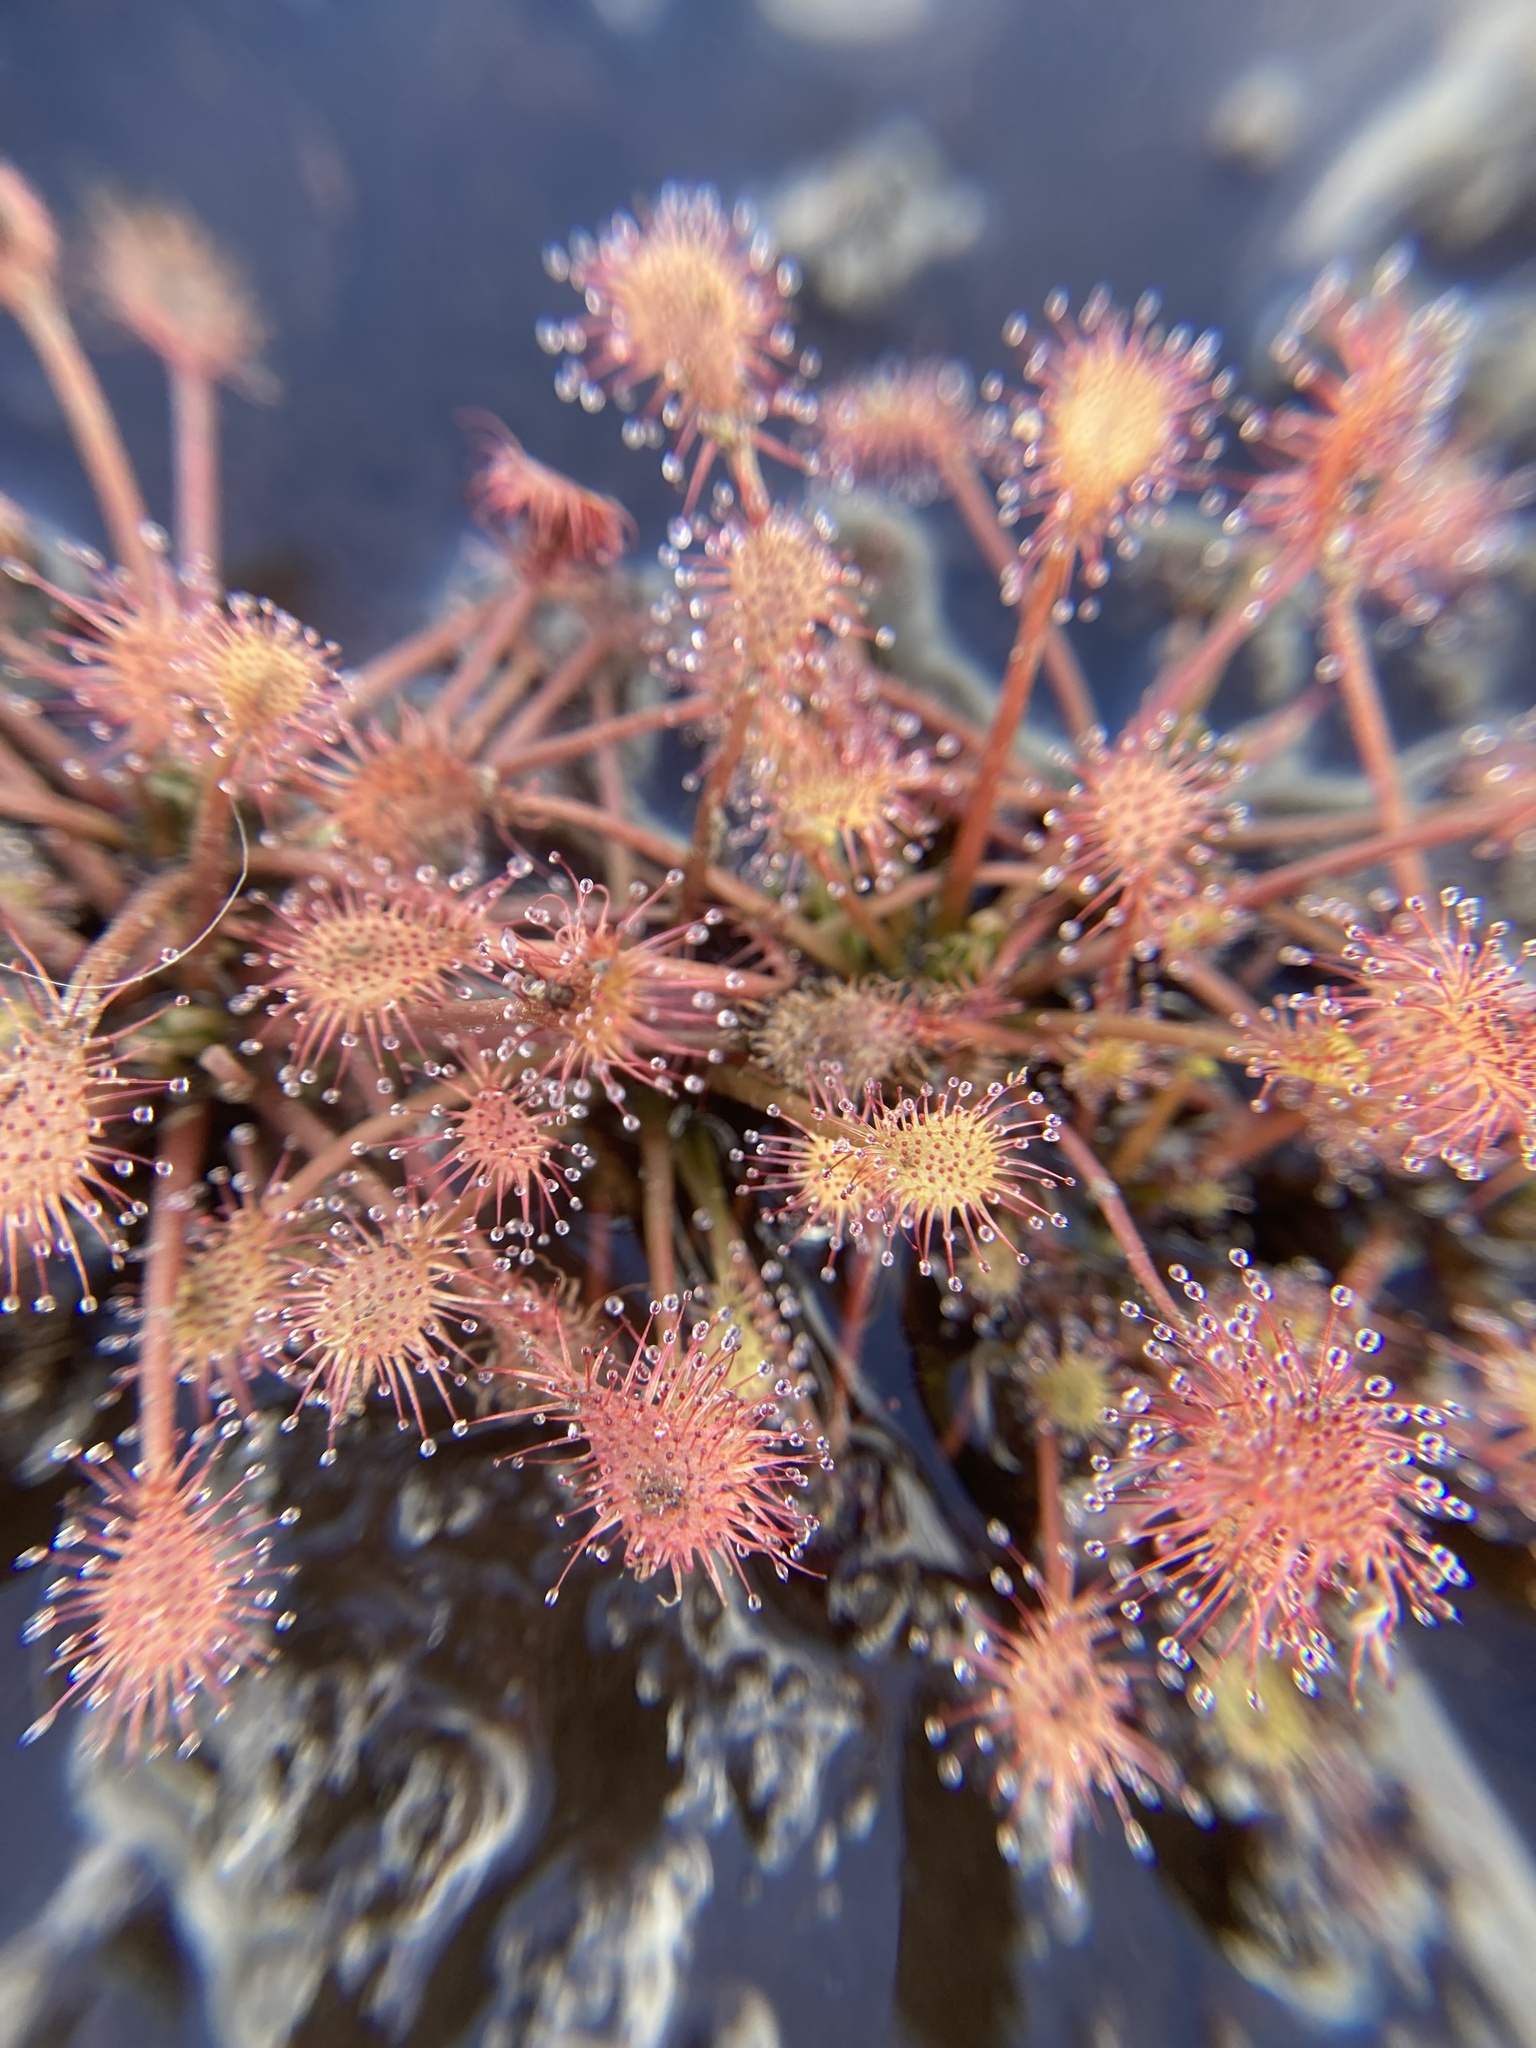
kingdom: Plantae
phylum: Tracheophyta
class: Magnoliopsida
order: Caryophyllales
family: Droseraceae
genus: Drosera
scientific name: Drosera intermedia
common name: Oblong-leaved sundew
